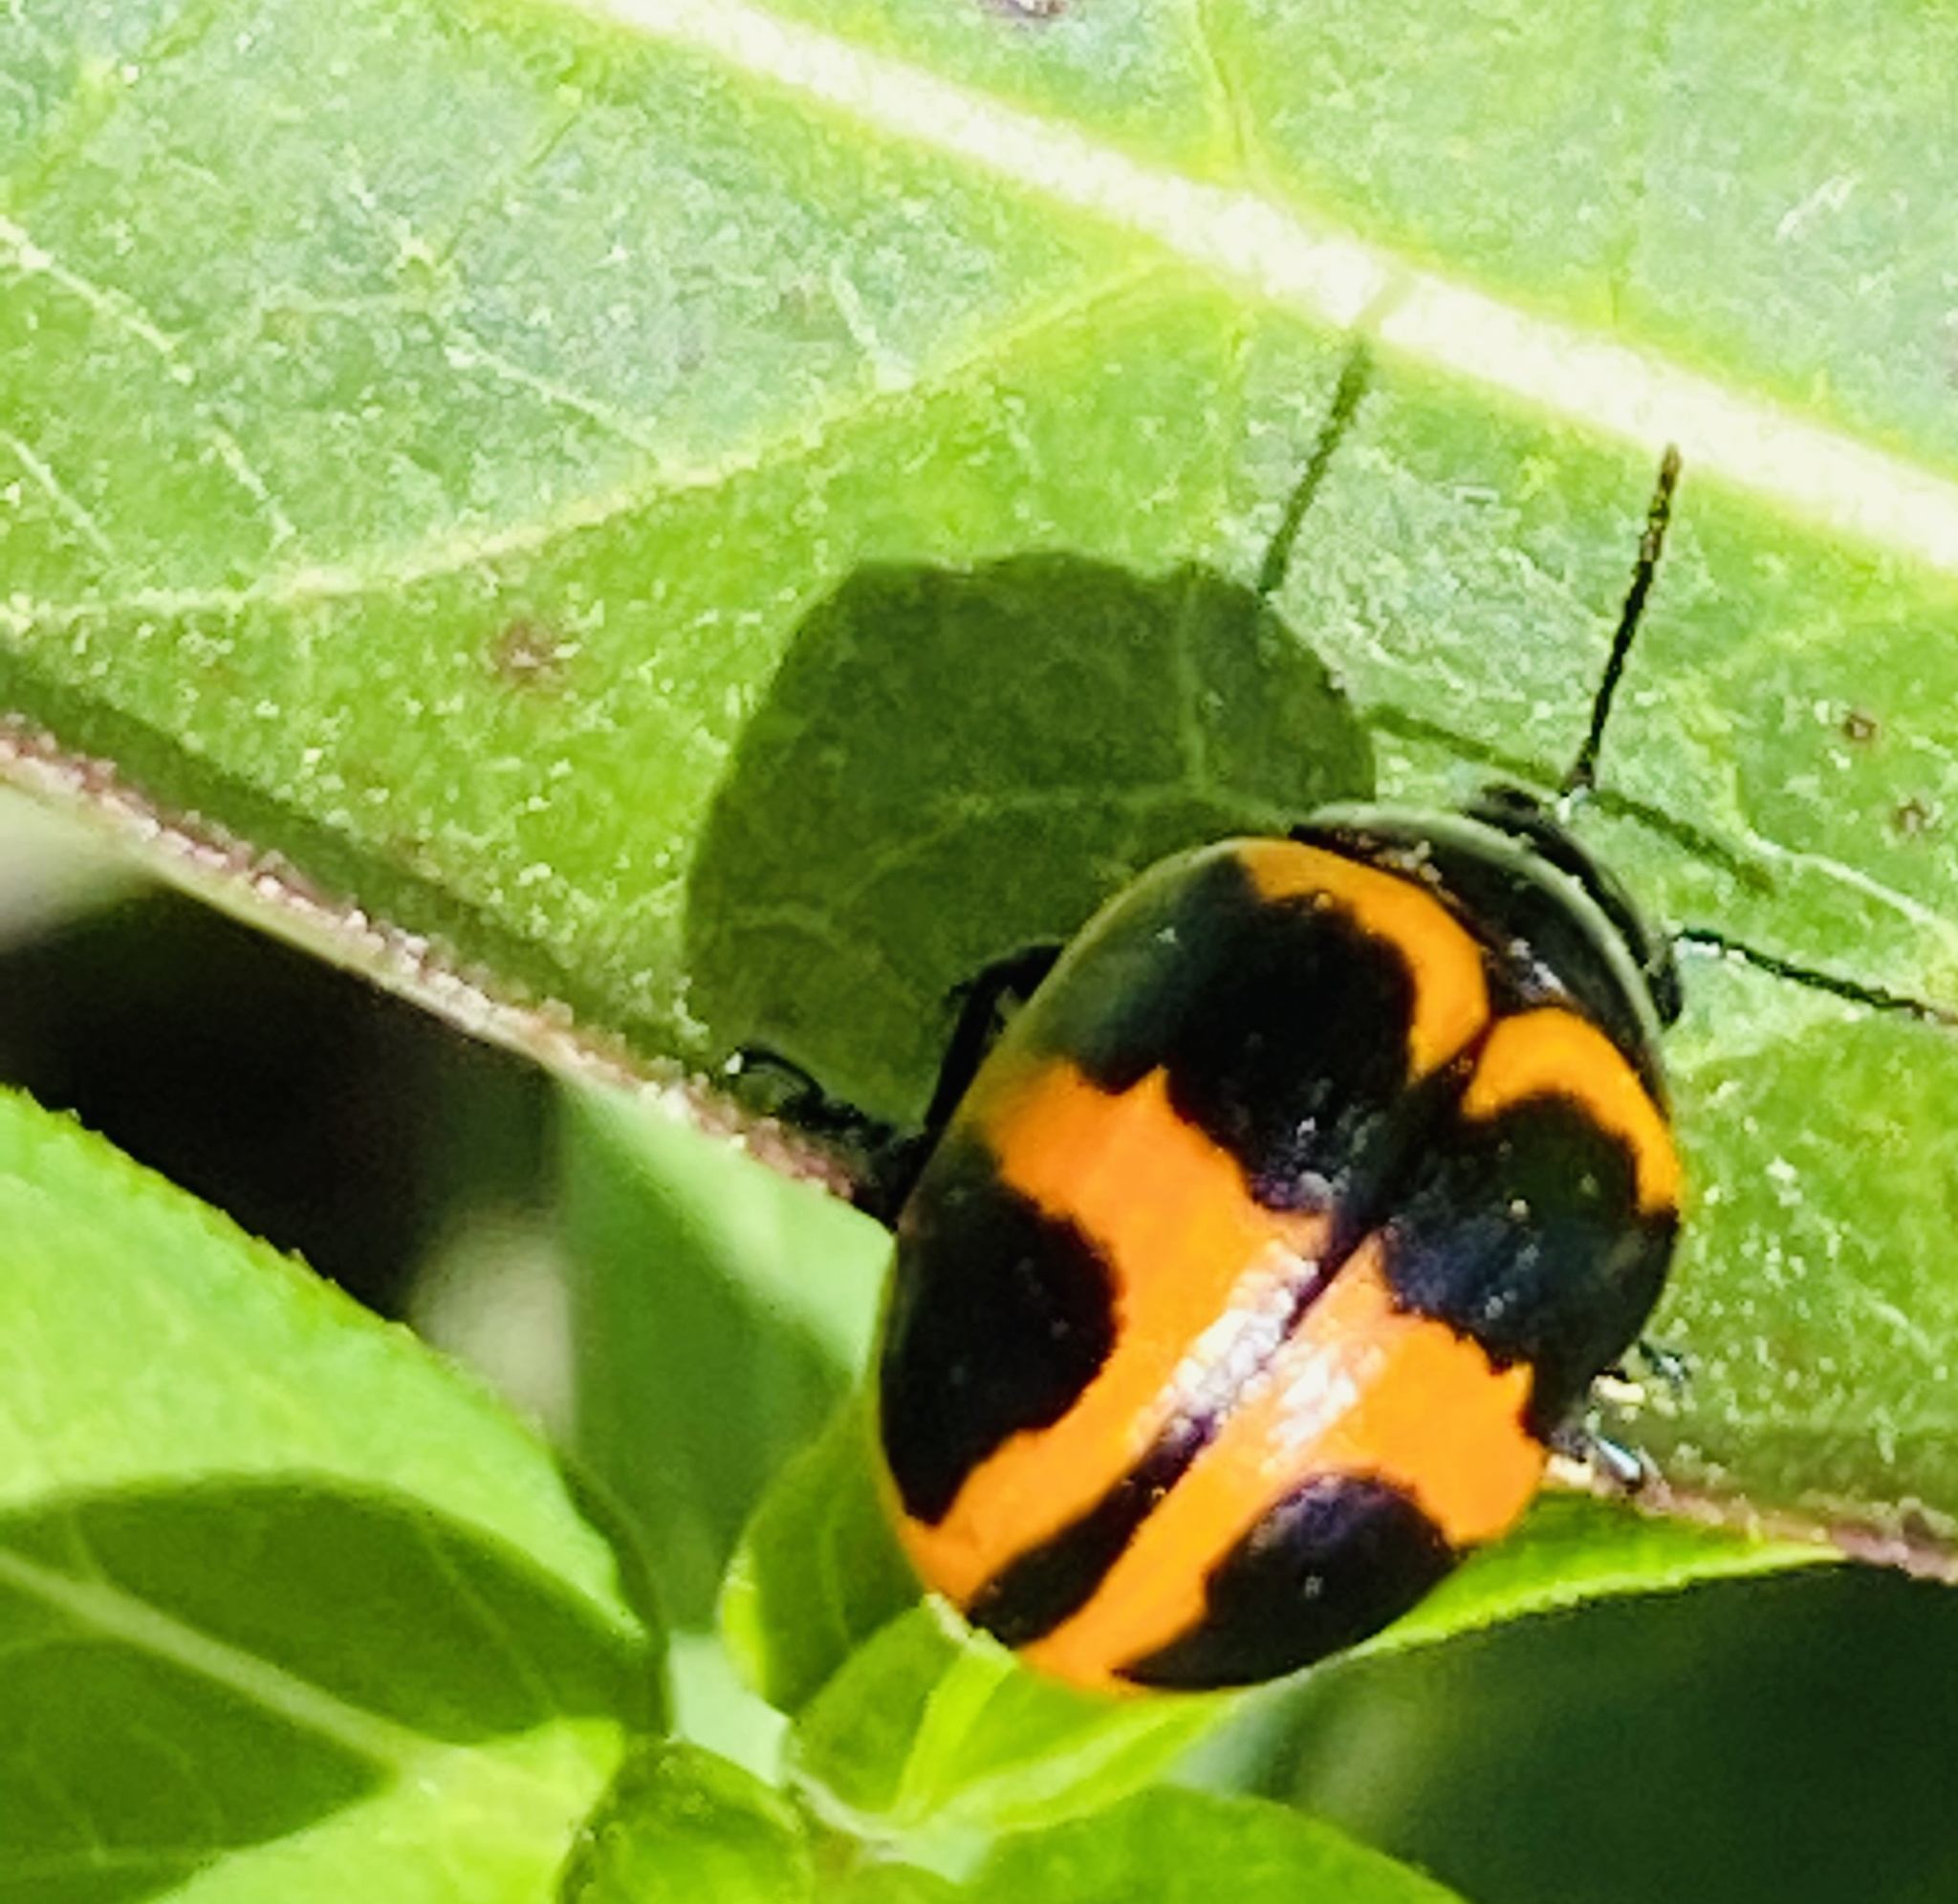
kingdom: Animalia
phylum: Arthropoda
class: Insecta
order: Coleoptera
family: Chrysomelidae
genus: Labidomera
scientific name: Labidomera clivicollis
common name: Swamp milkweed leaf beetle
